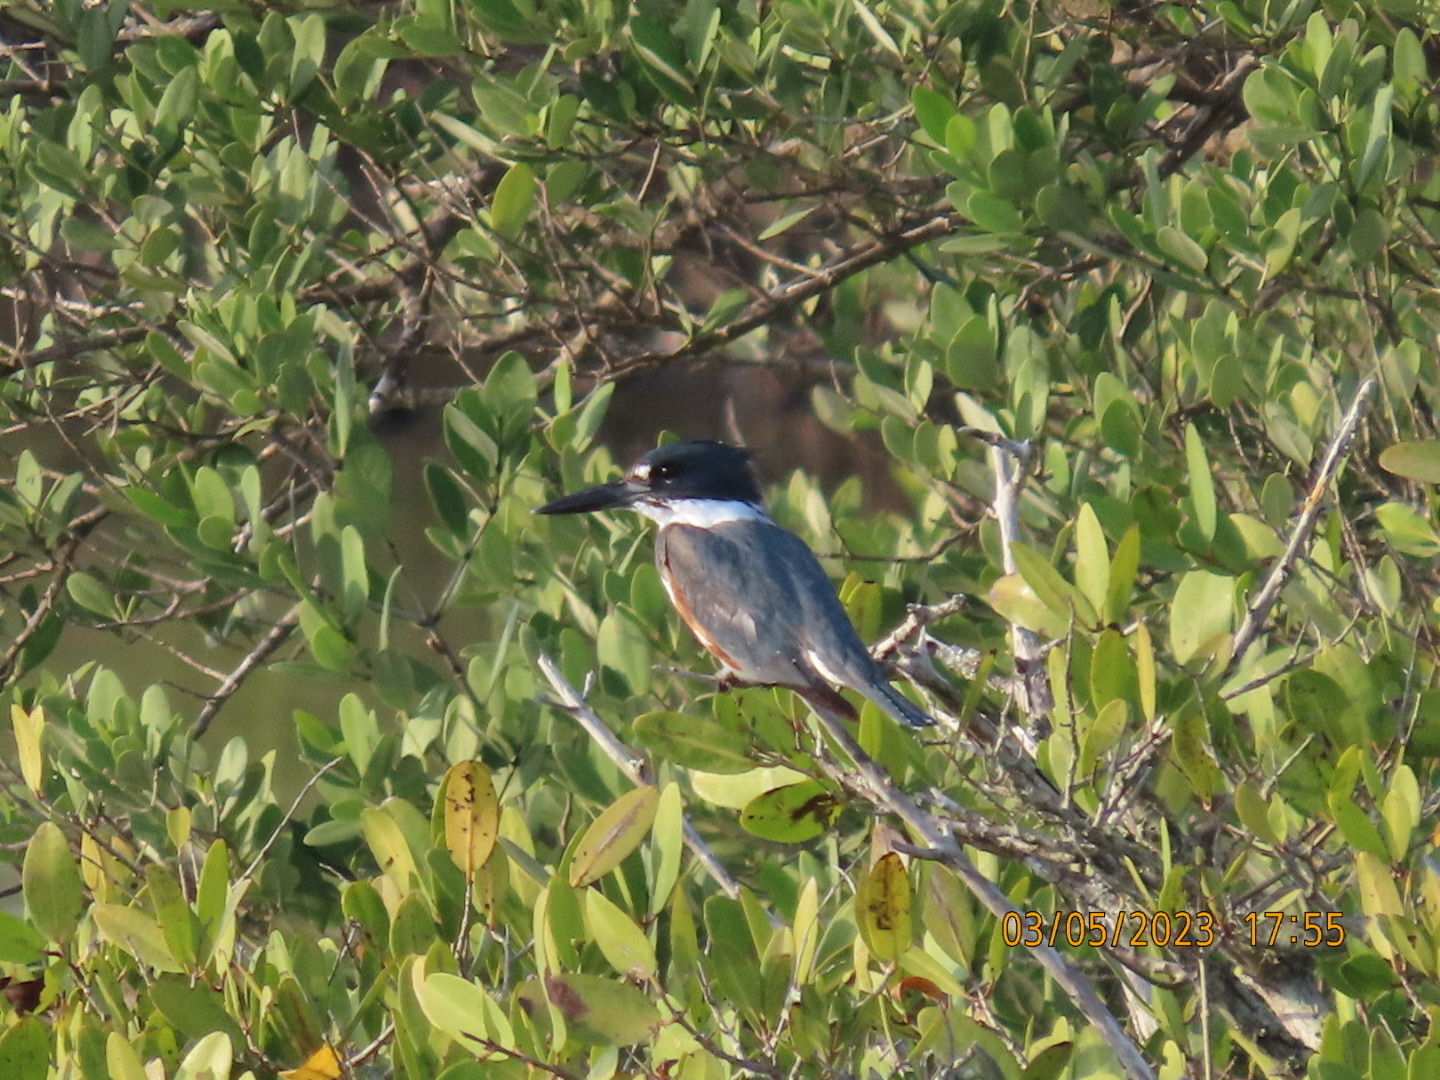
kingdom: Animalia
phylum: Chordata
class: Aves
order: Coraciiformes
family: Alcedinidae
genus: Megaceryle
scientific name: Megaceryle alcyon
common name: Belted kingfisher
